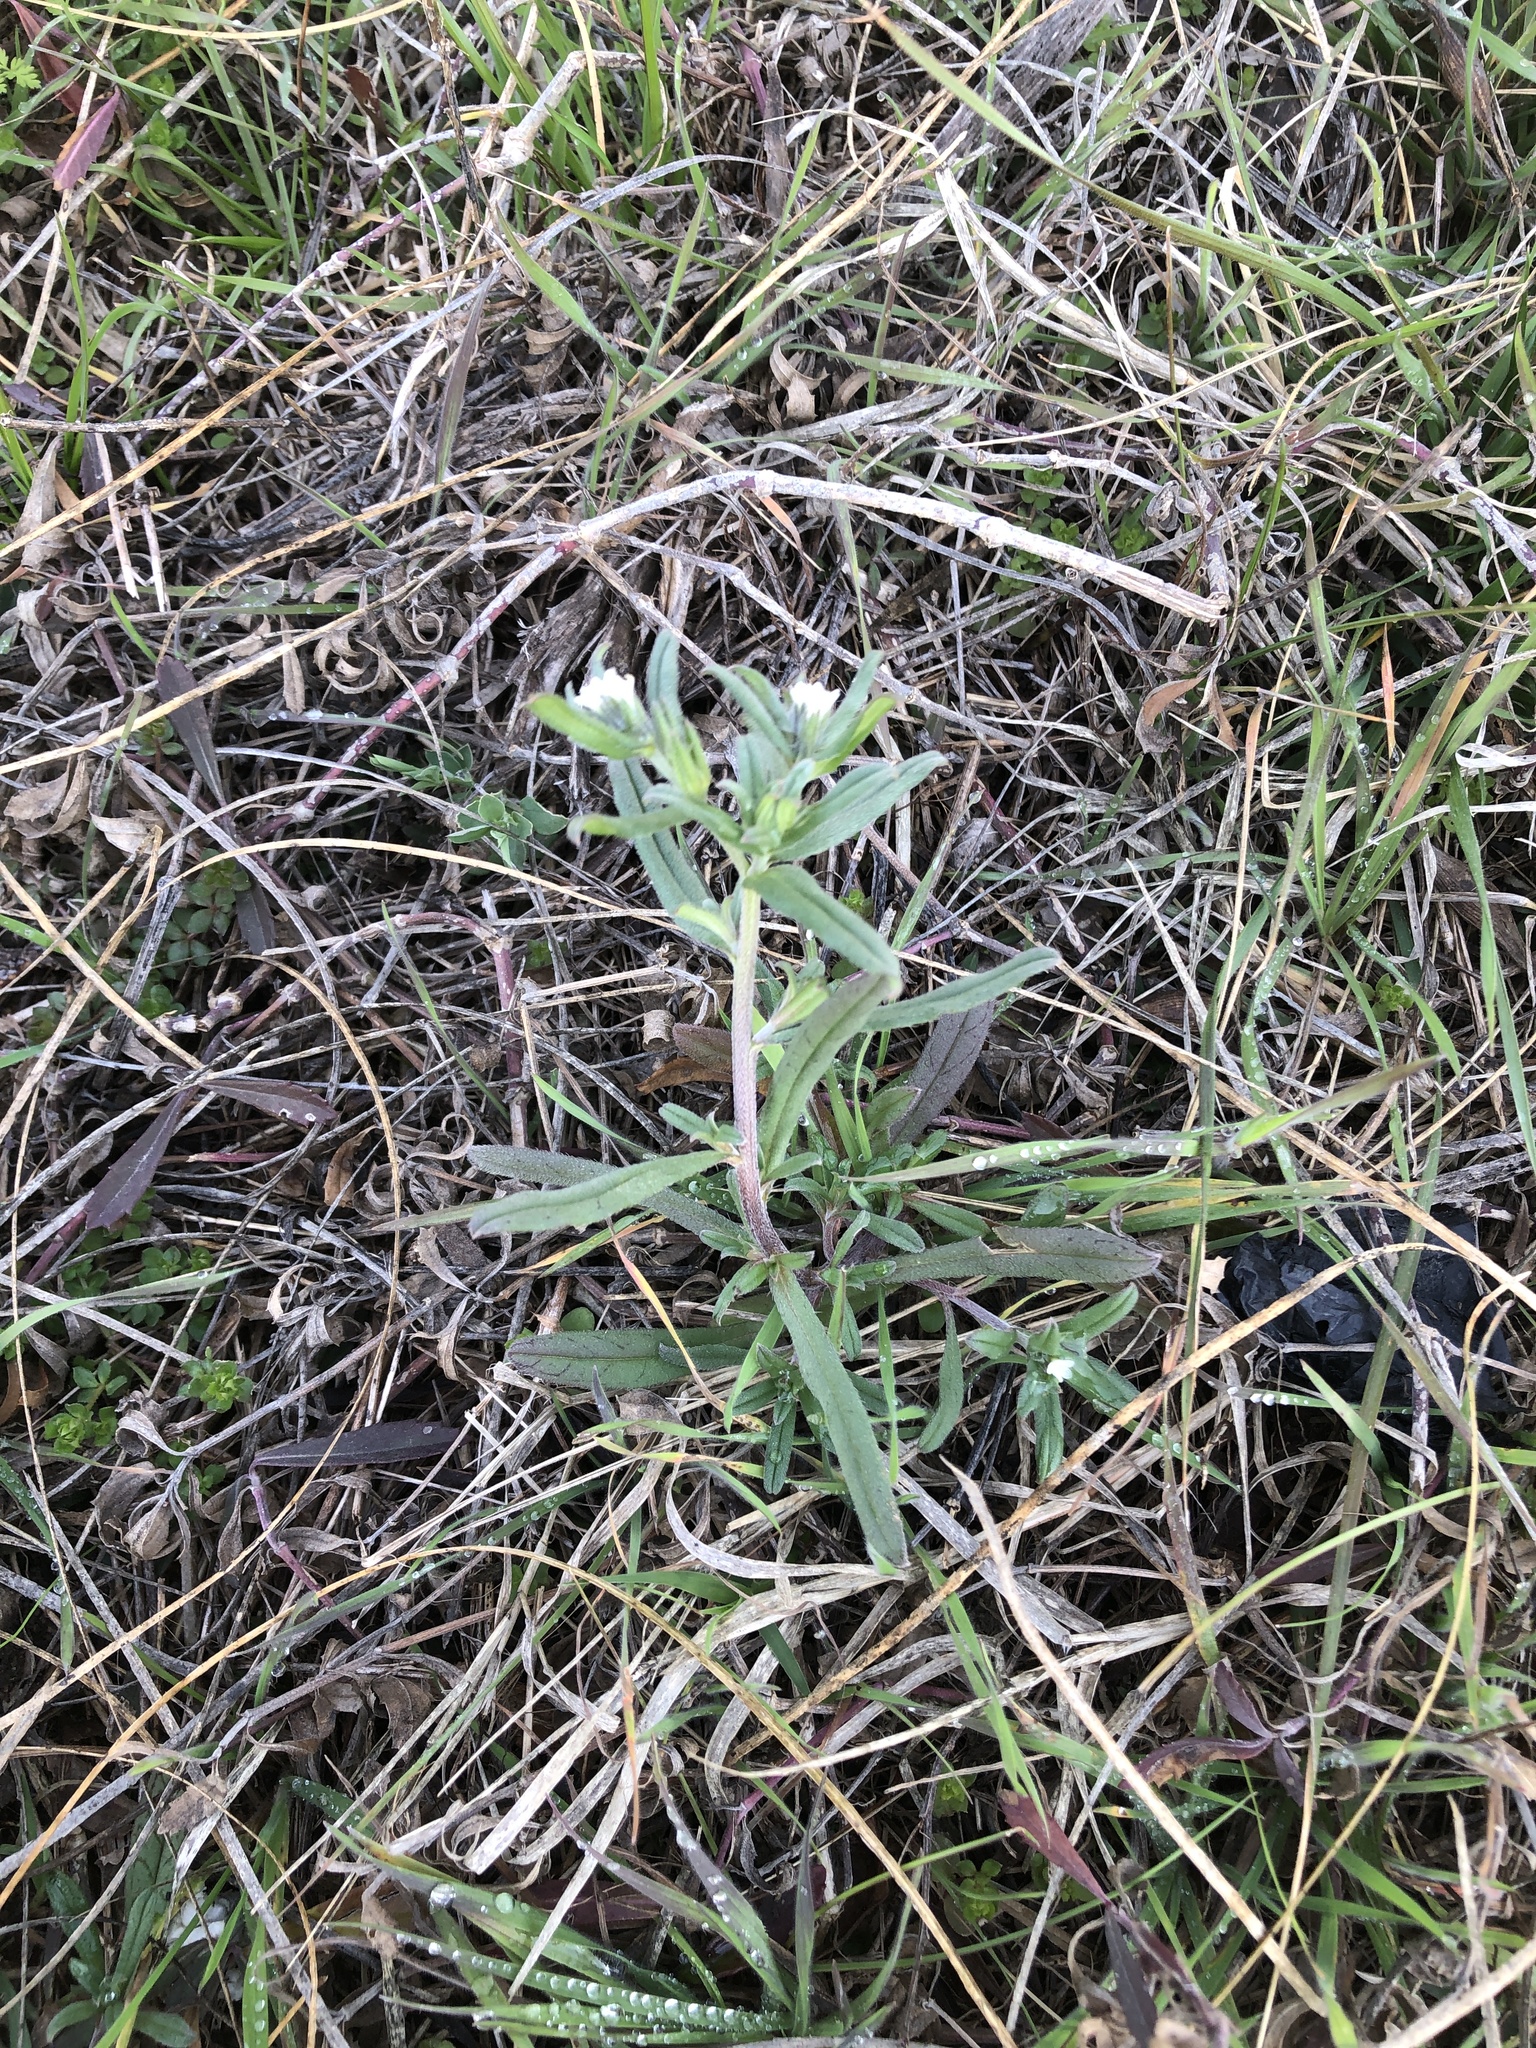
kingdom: Plantae
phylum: Tracheophyta
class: Magnoliopsida
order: Boraginales
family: Boraginaceae
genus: Buglossoides
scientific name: Buglossoides arvensis
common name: Corn gromwell
